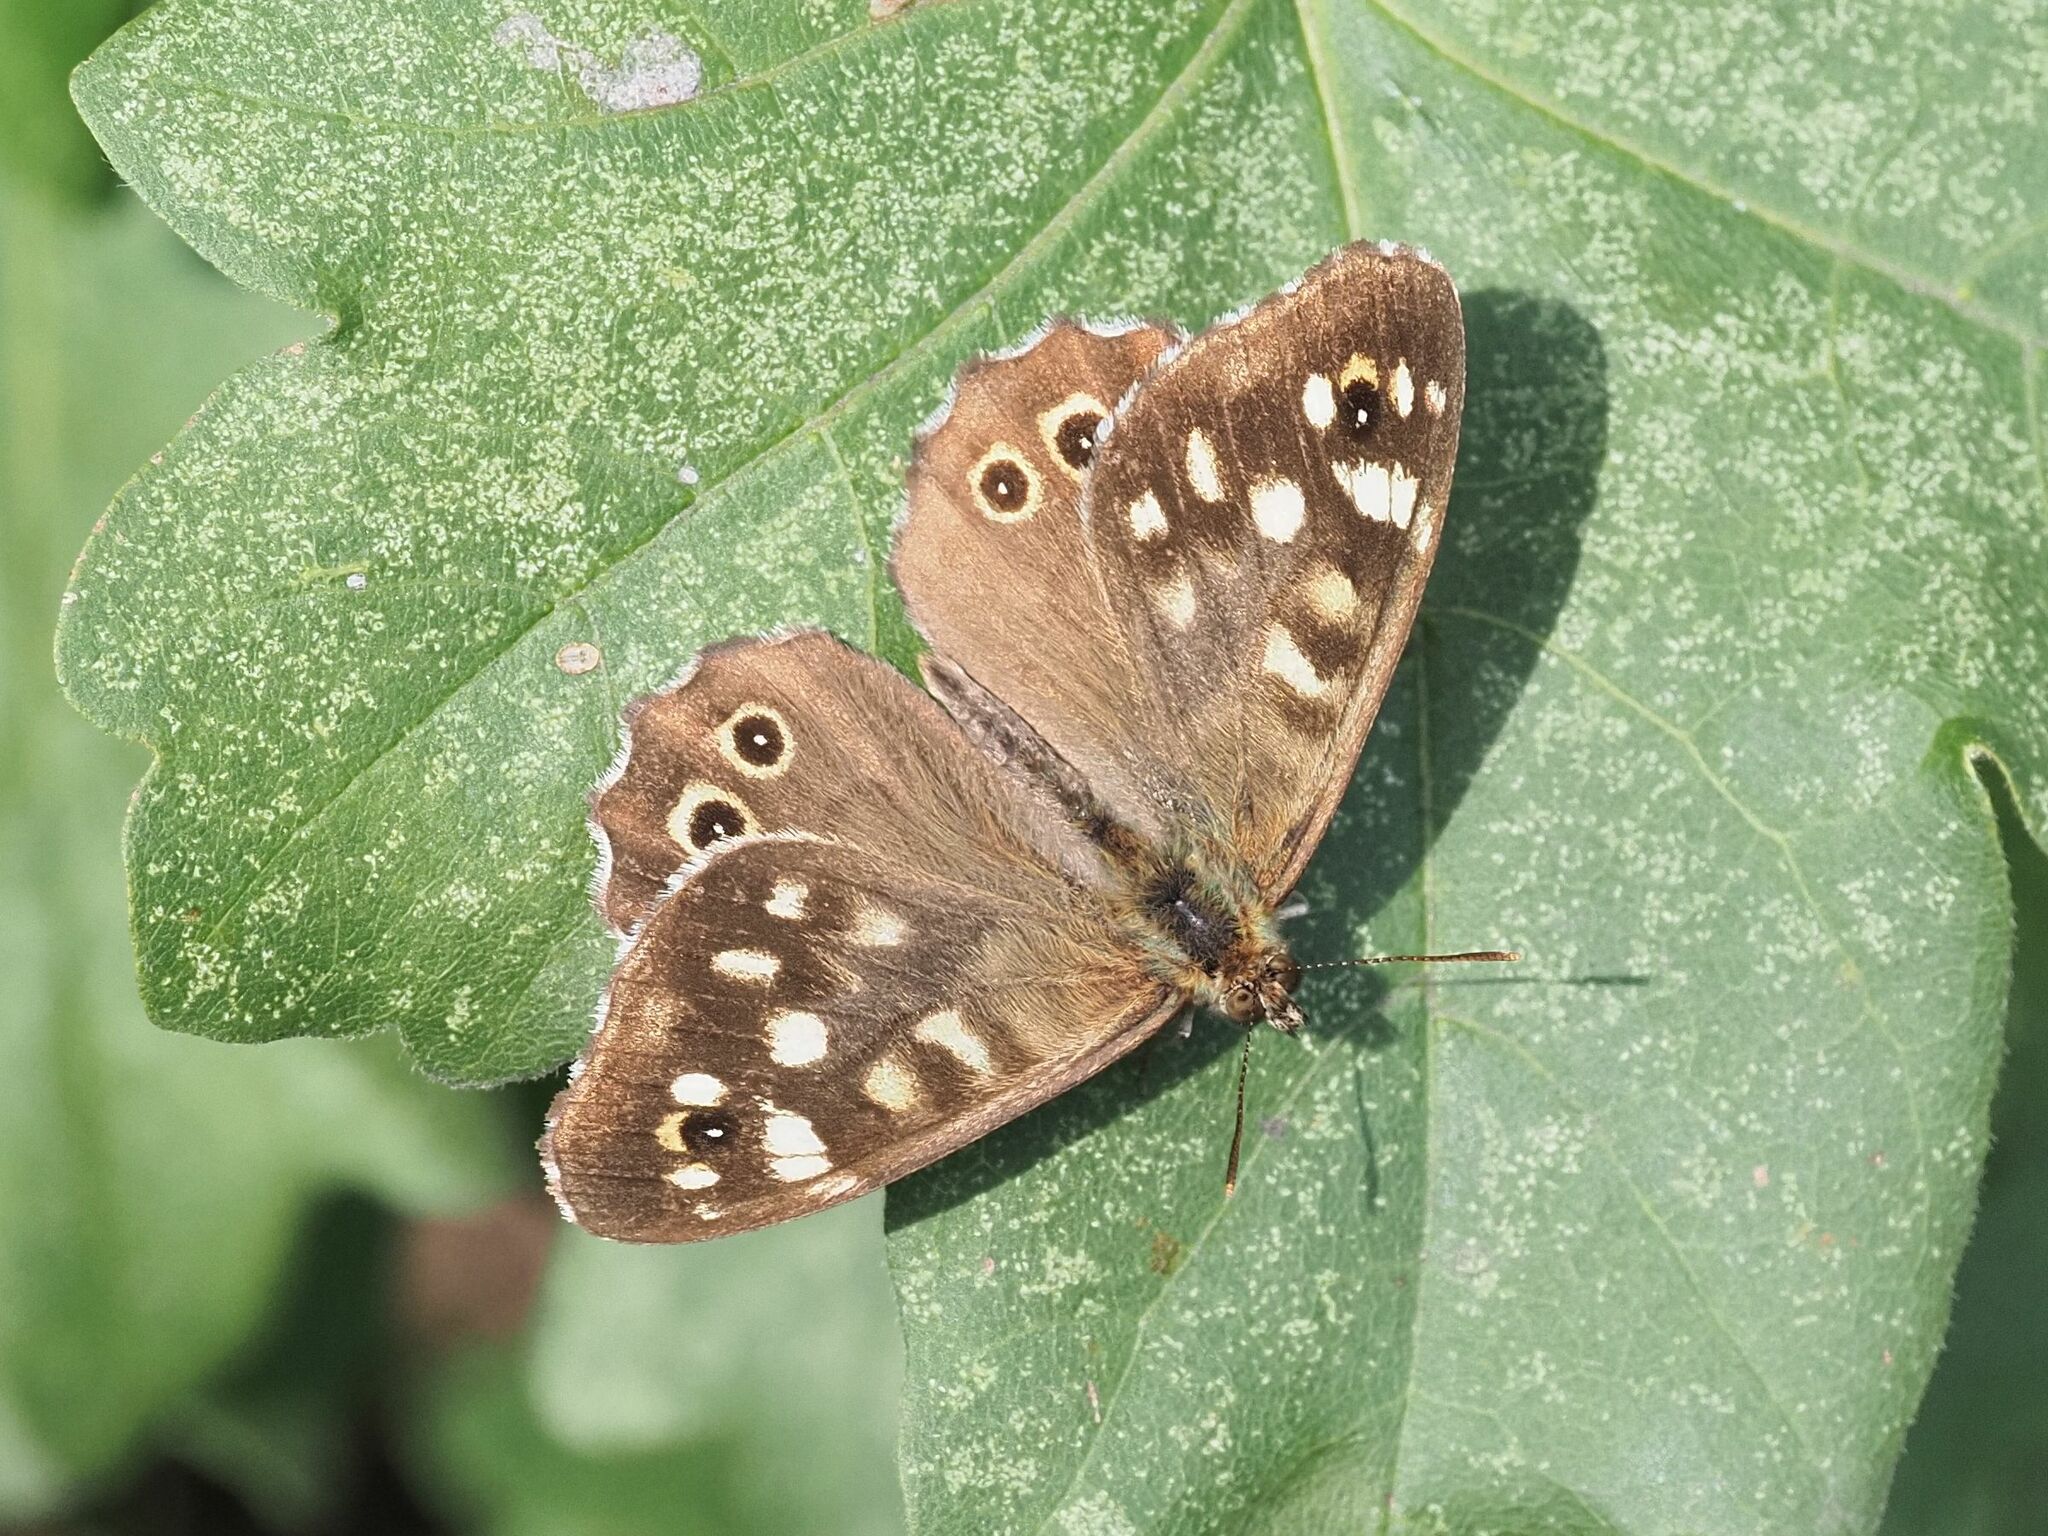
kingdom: Animalia
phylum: Arthropoda
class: Insecta
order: Lepidoptera
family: Nymphalidae
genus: Pararge
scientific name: Pararge aegeria
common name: Speckled wood
